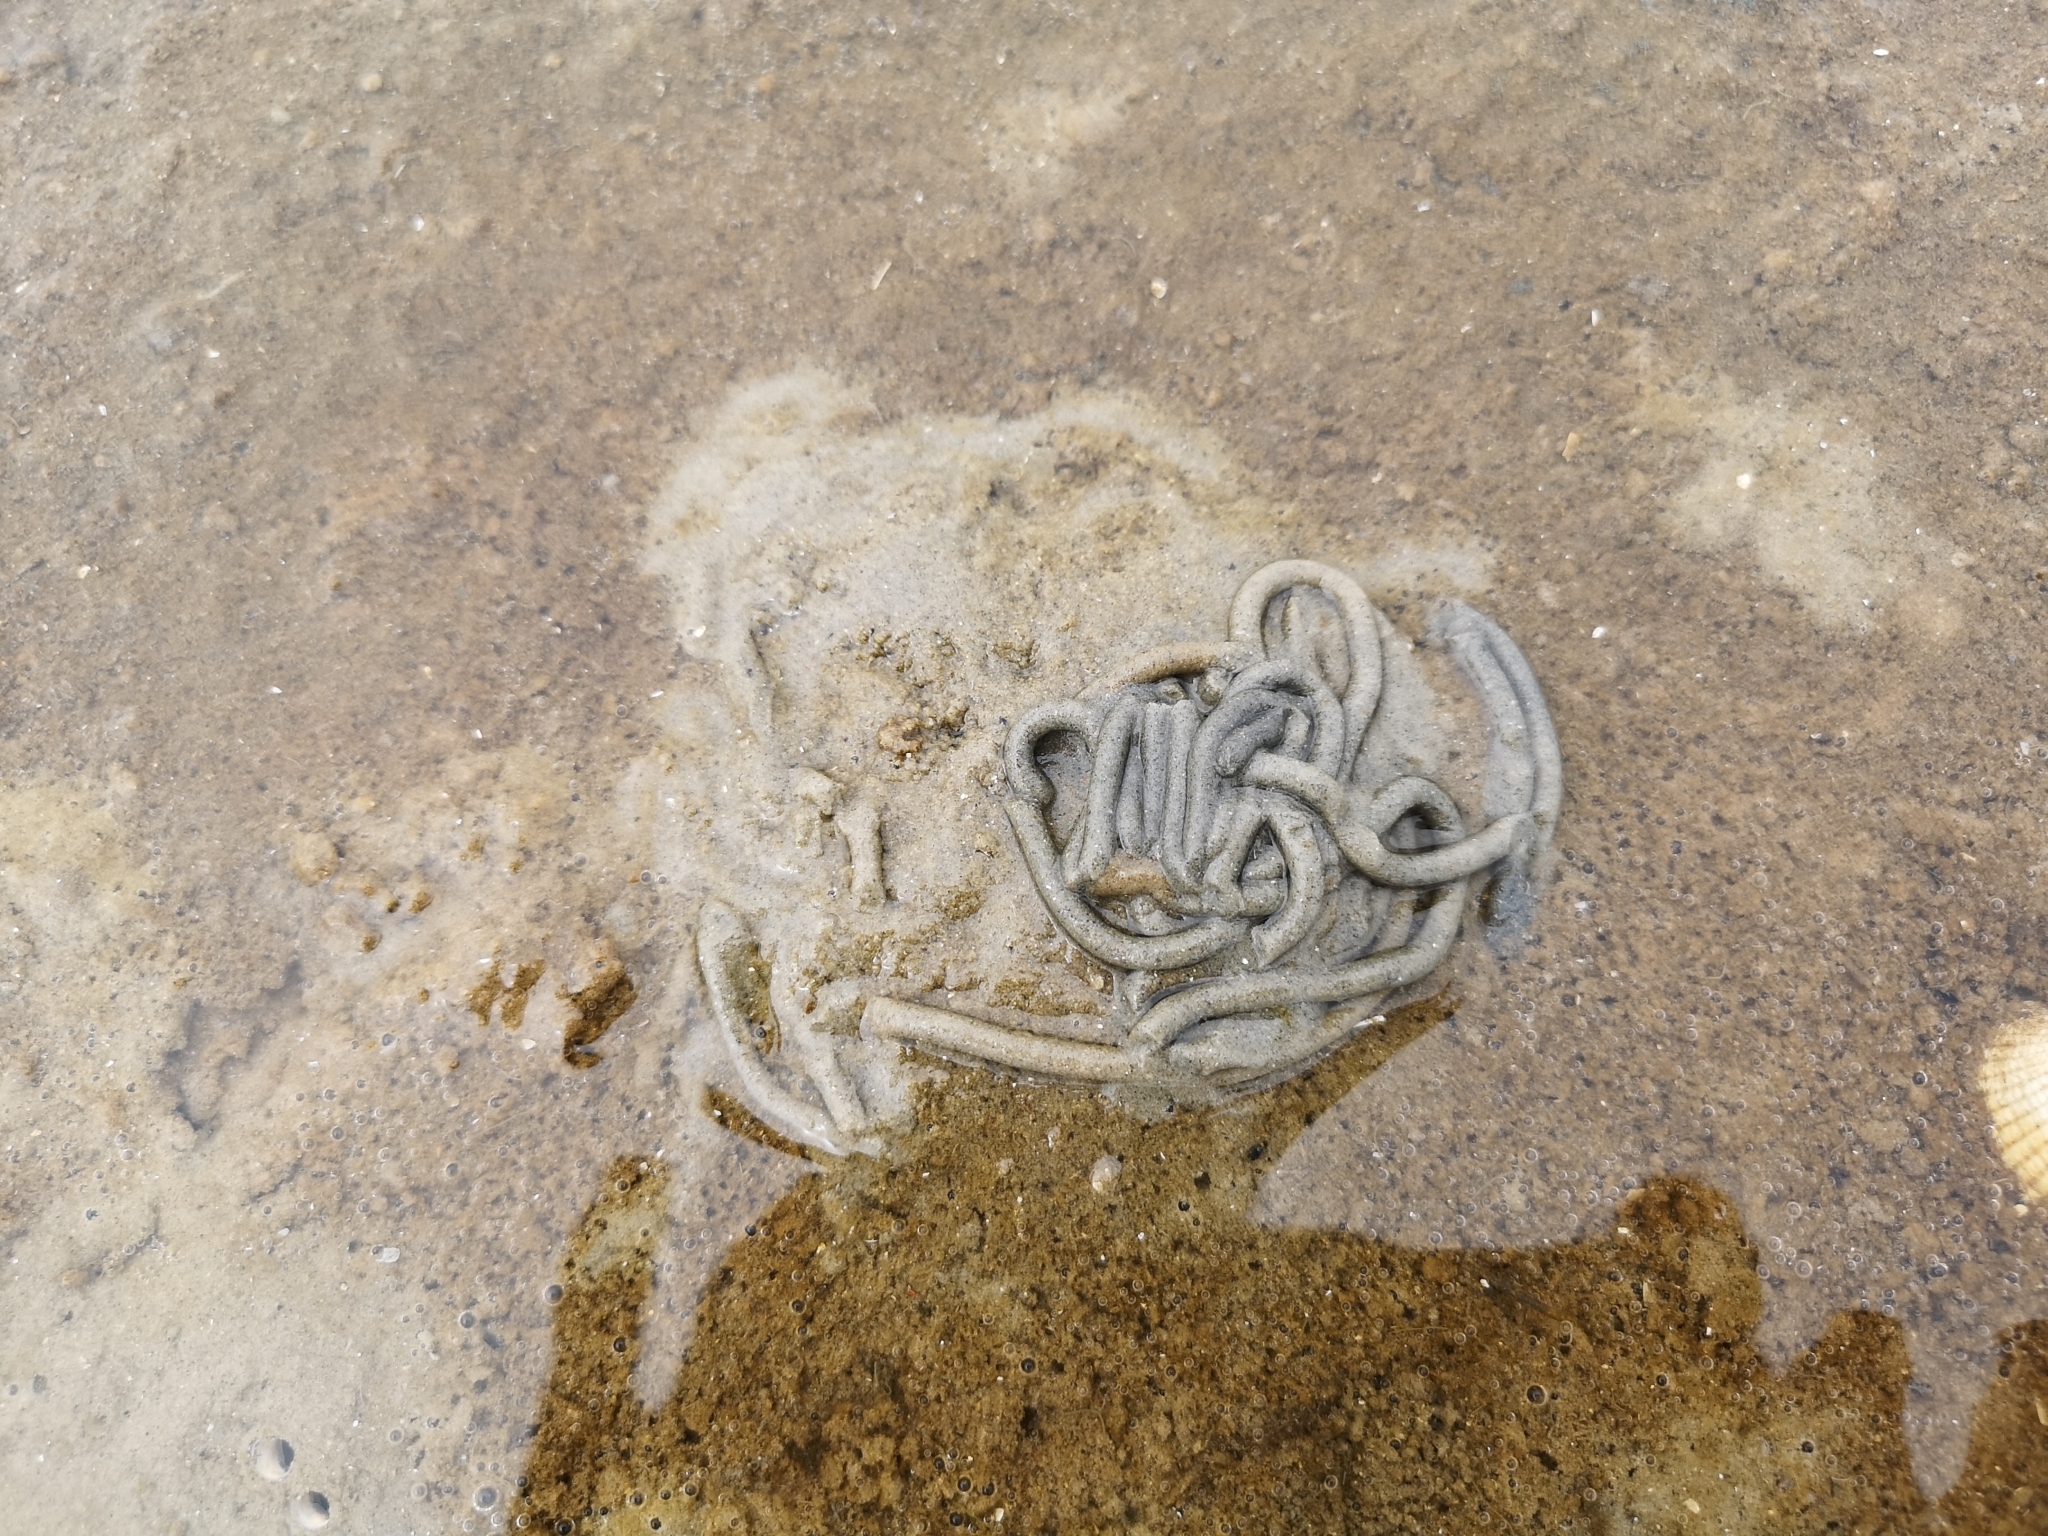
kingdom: Animalia
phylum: Annelida
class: Polychaeta
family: Arenicolidae
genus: Arenicola
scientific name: Arenicola marina
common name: Blow lugworm
